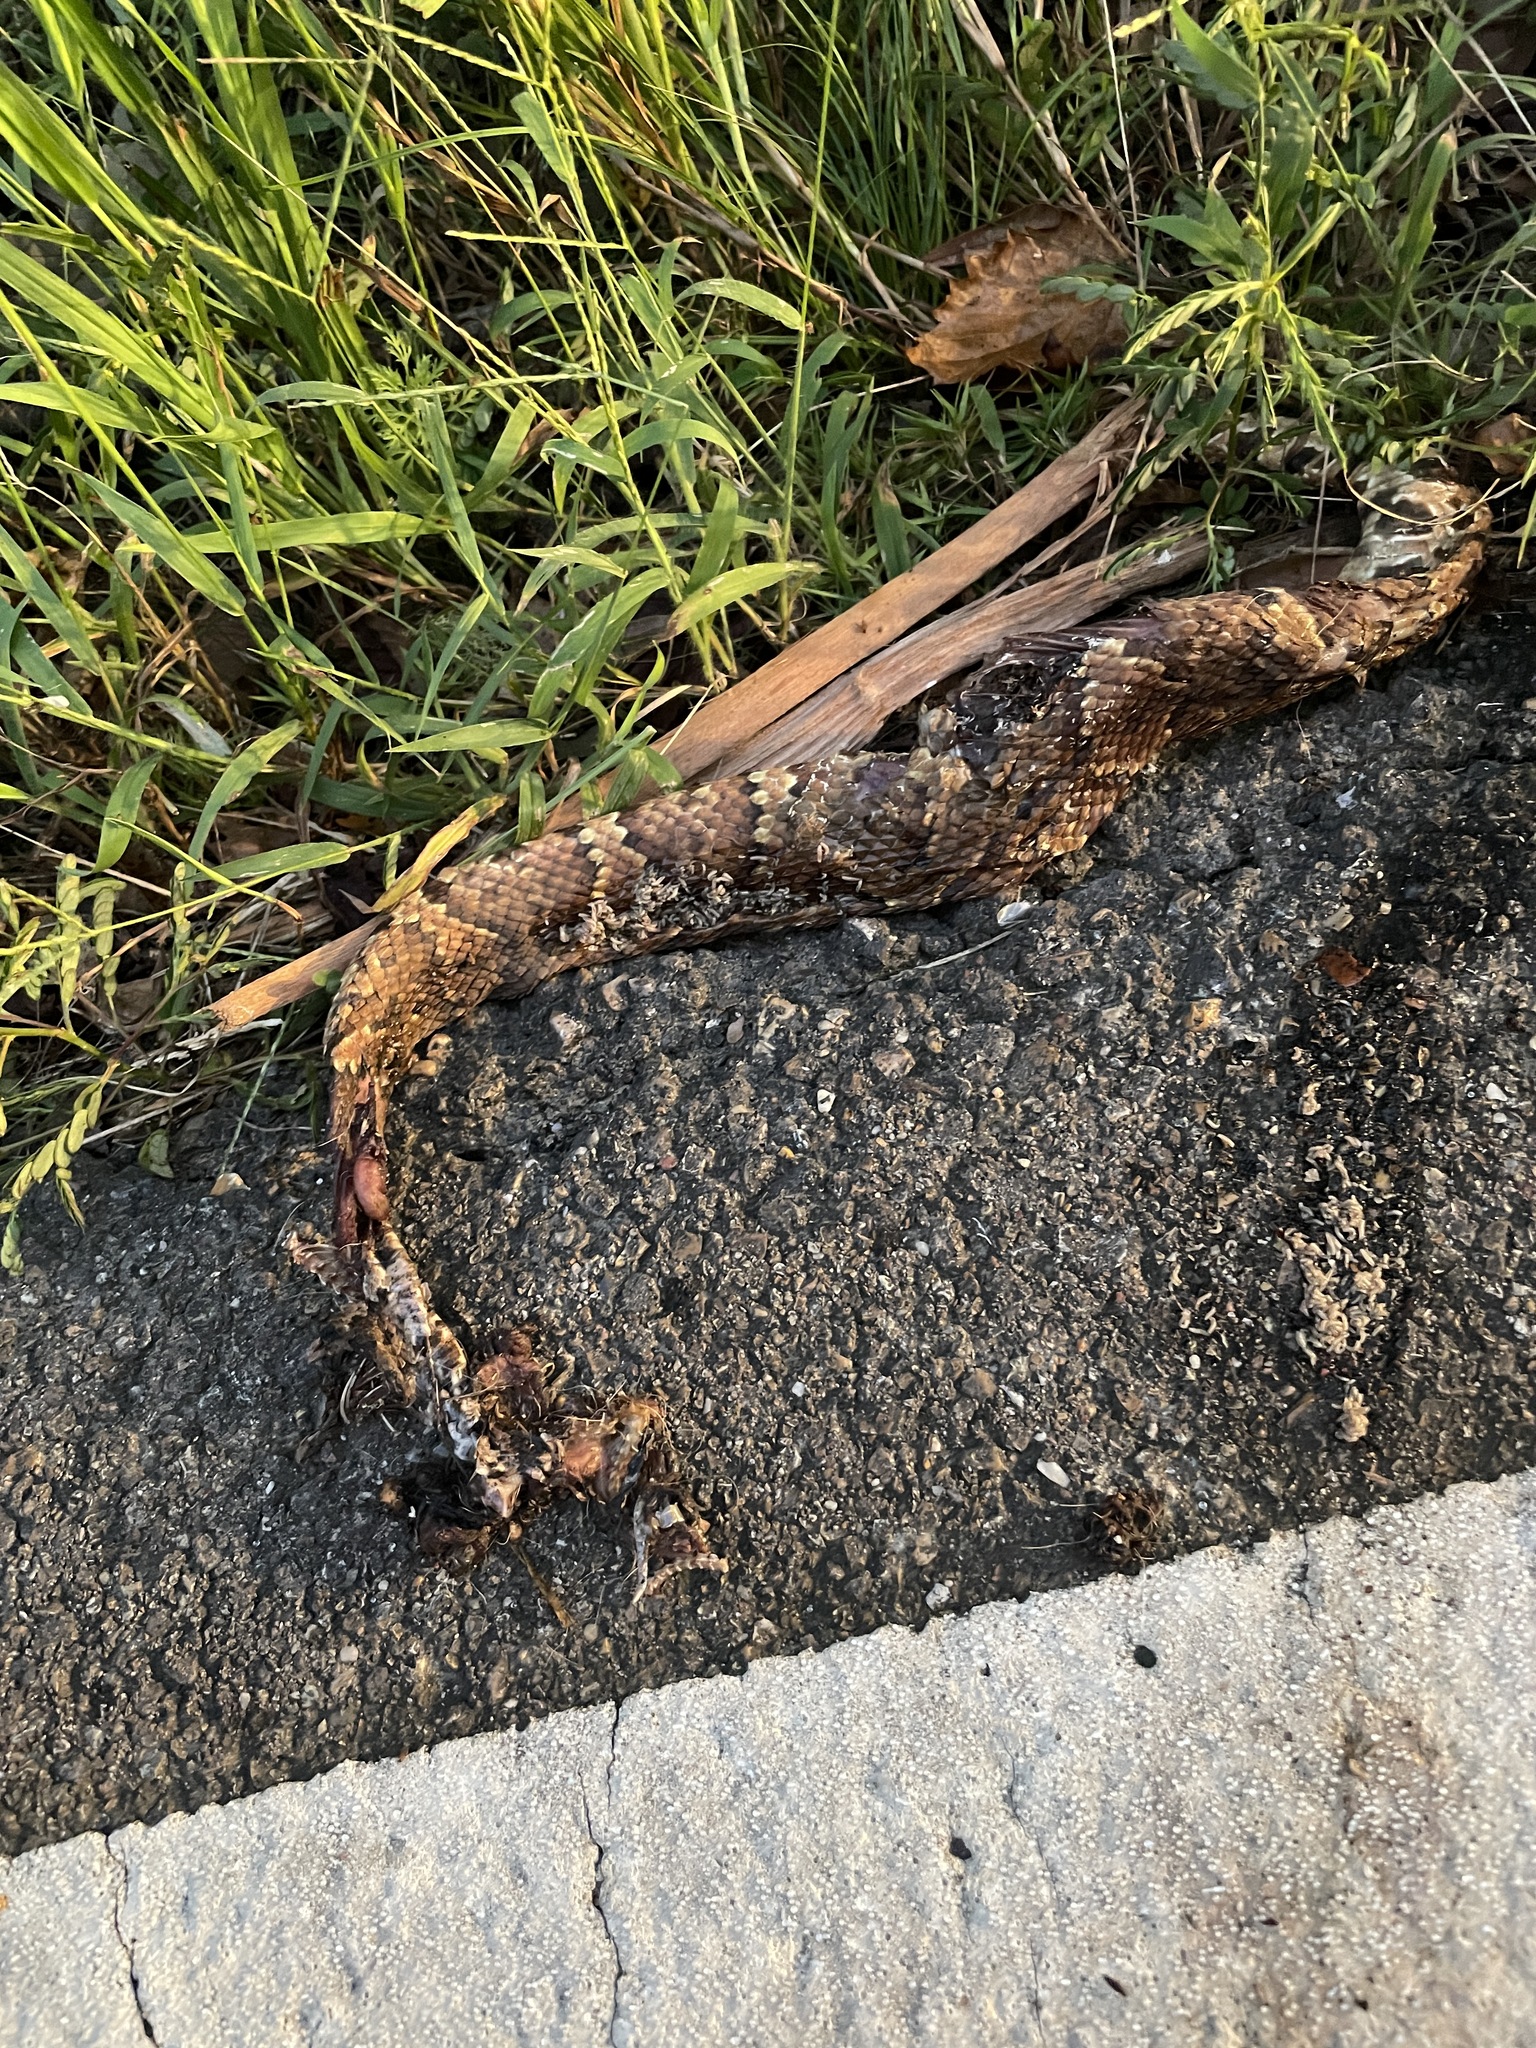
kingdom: Animalia
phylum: Chordata
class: Squamata
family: Viperidae
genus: Agkistrodon
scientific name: Agkistrodon piscivorus
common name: Cottonmouth
